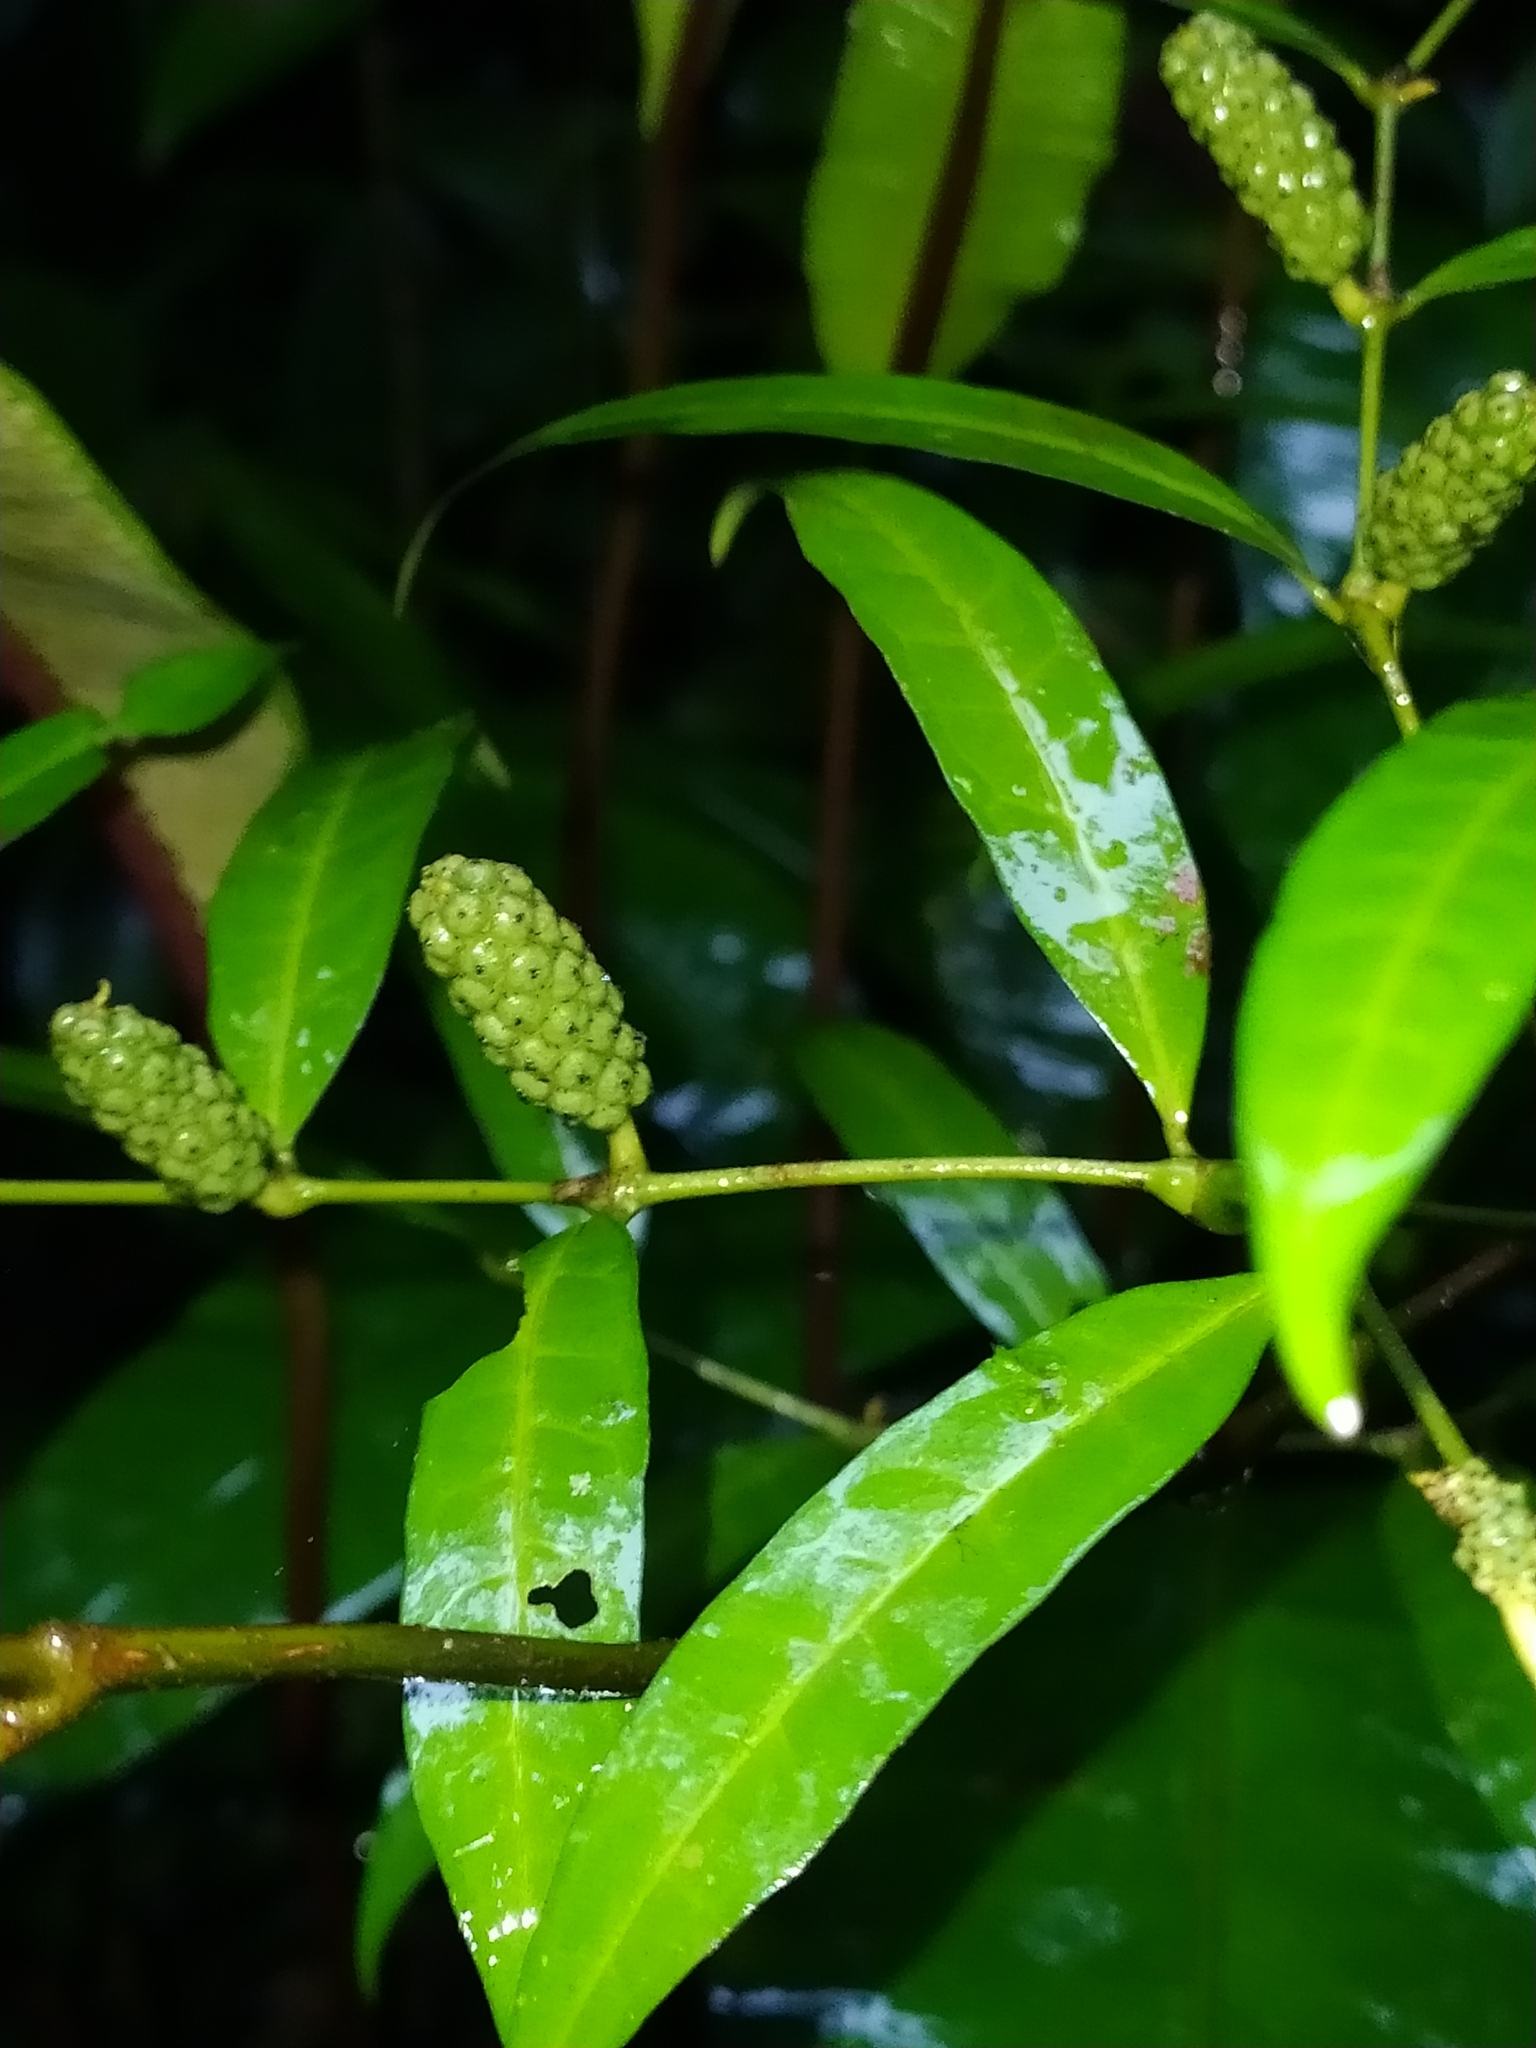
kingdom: Plantae
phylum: Tracheophyta
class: Magnoliopsida
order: Piperales
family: Piperaceae
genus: Piper
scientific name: Piper eucalyptifolium
